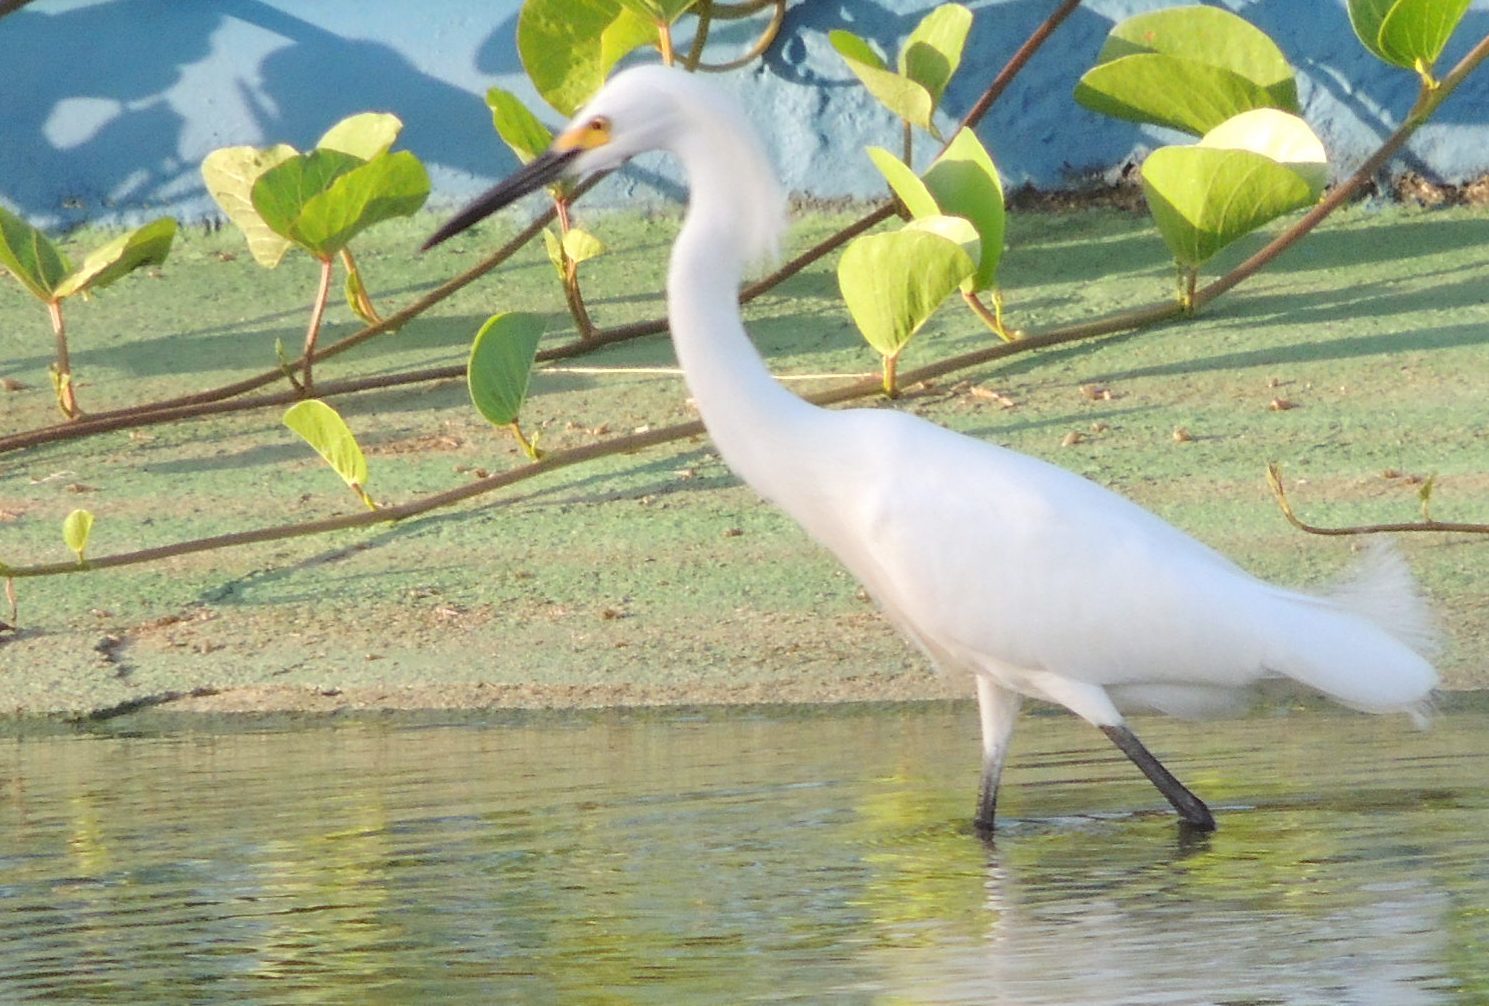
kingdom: Animalia
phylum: Chordata
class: Aves
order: Pelecaniformes
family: Ardeidae
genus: Egretta
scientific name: Egretta thula
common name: Snowy egret
